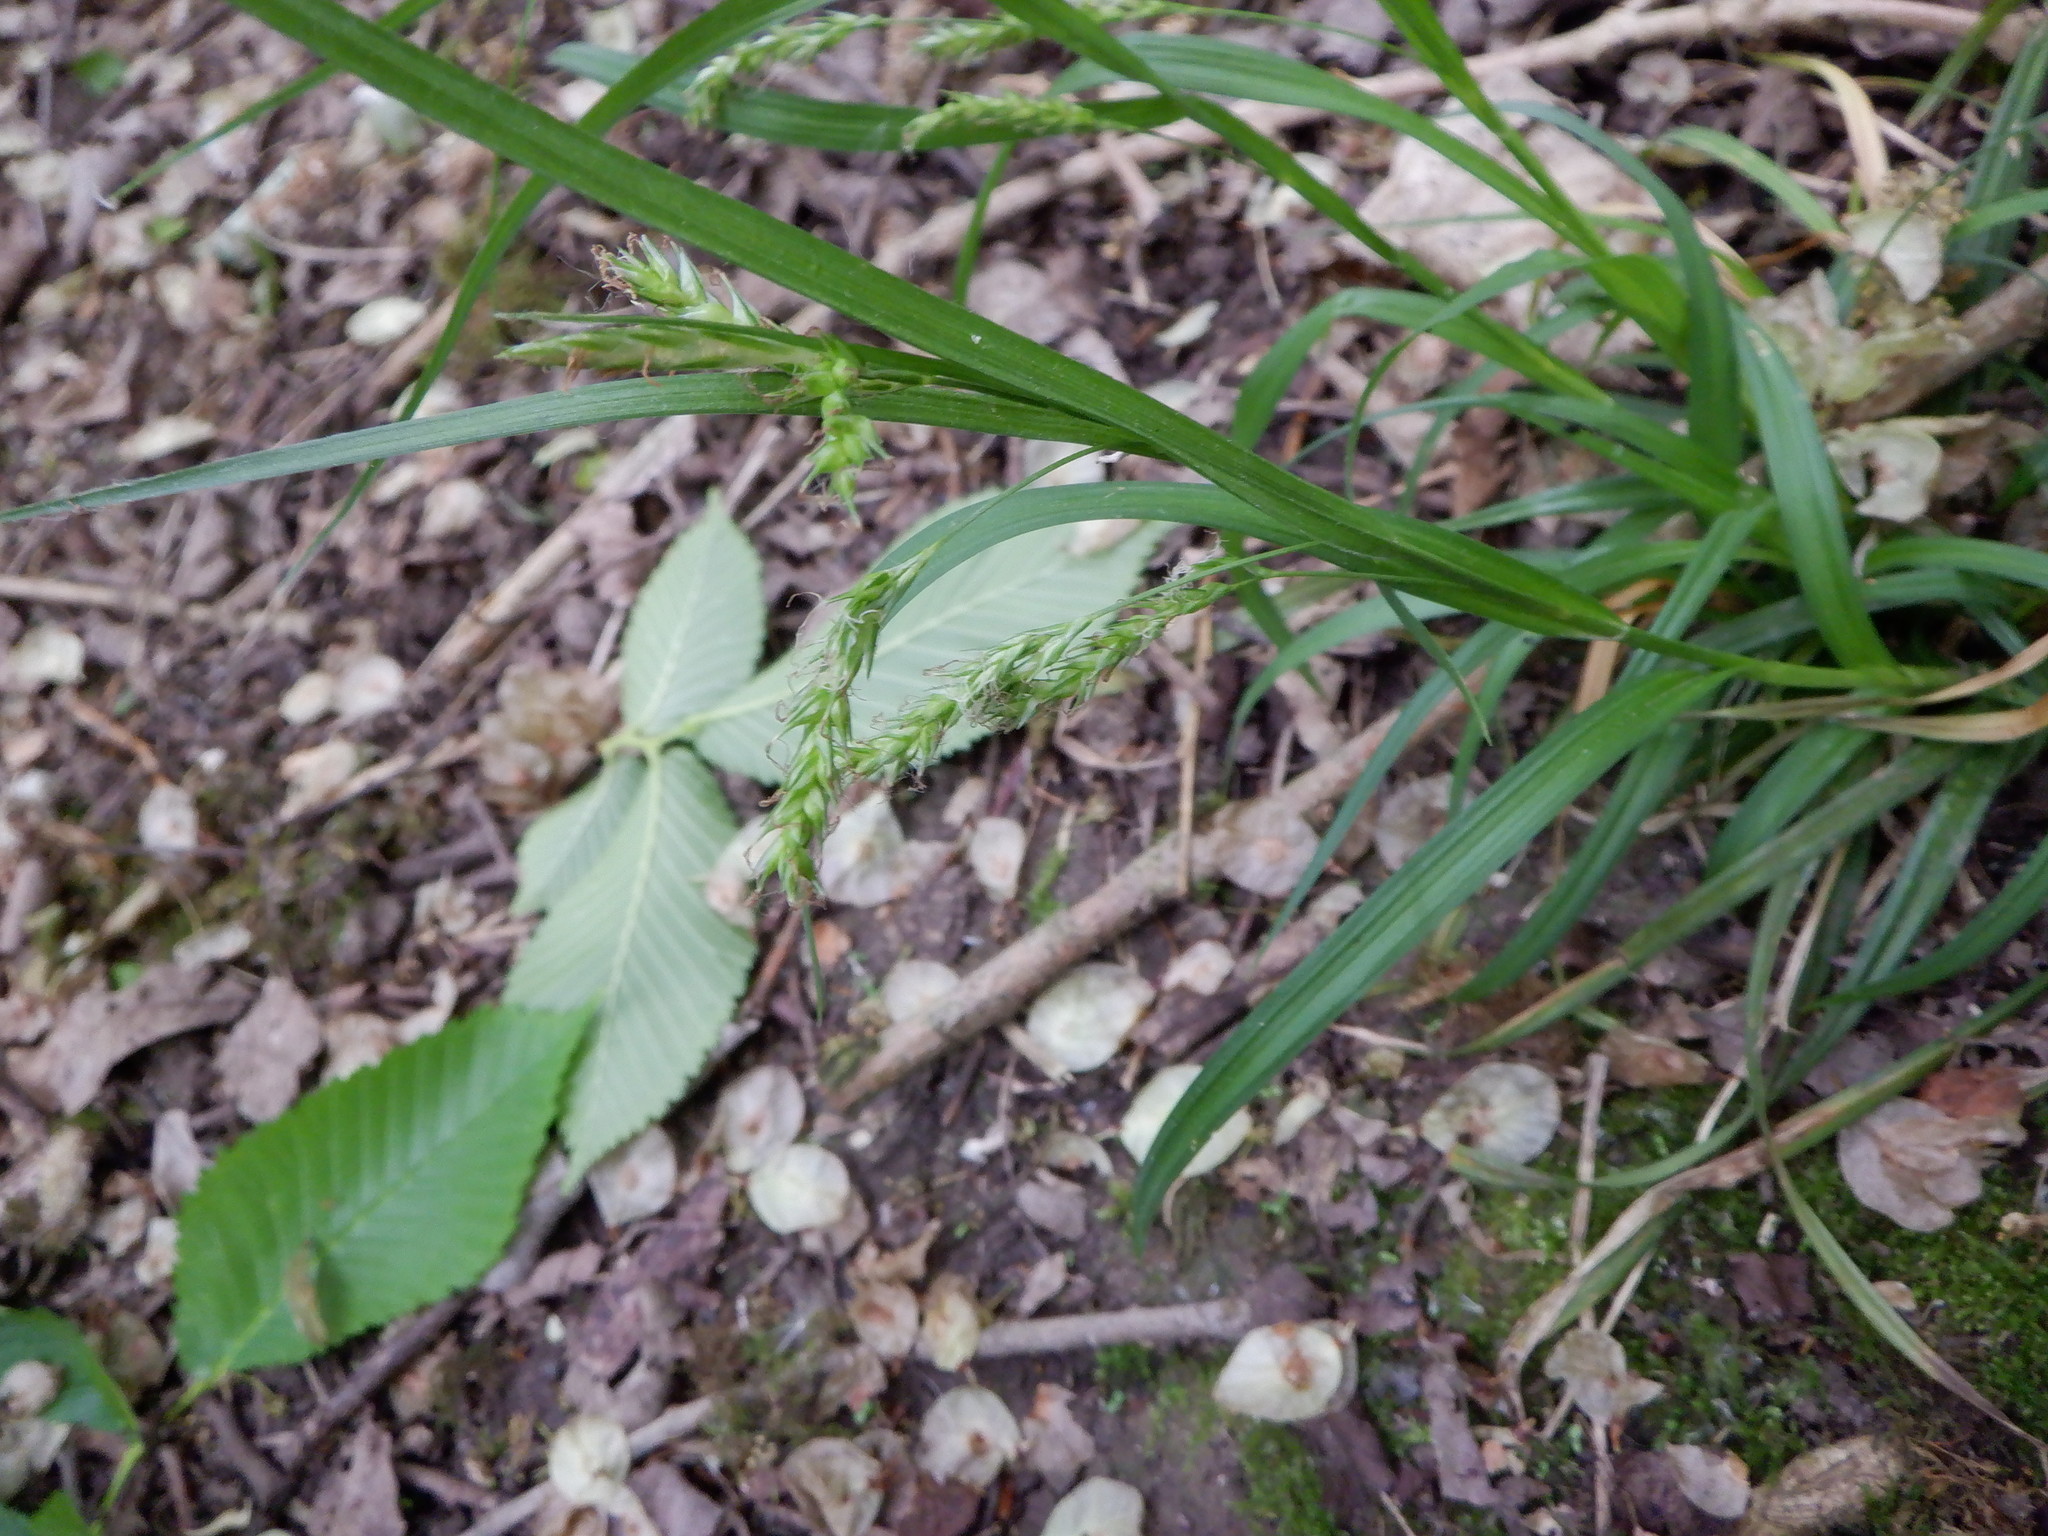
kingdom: Plantae
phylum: Tracheophyta
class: Liliopsida
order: Poales
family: Cyperaceae
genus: Carex
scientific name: Carex sylvatica
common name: Wood-sedge
